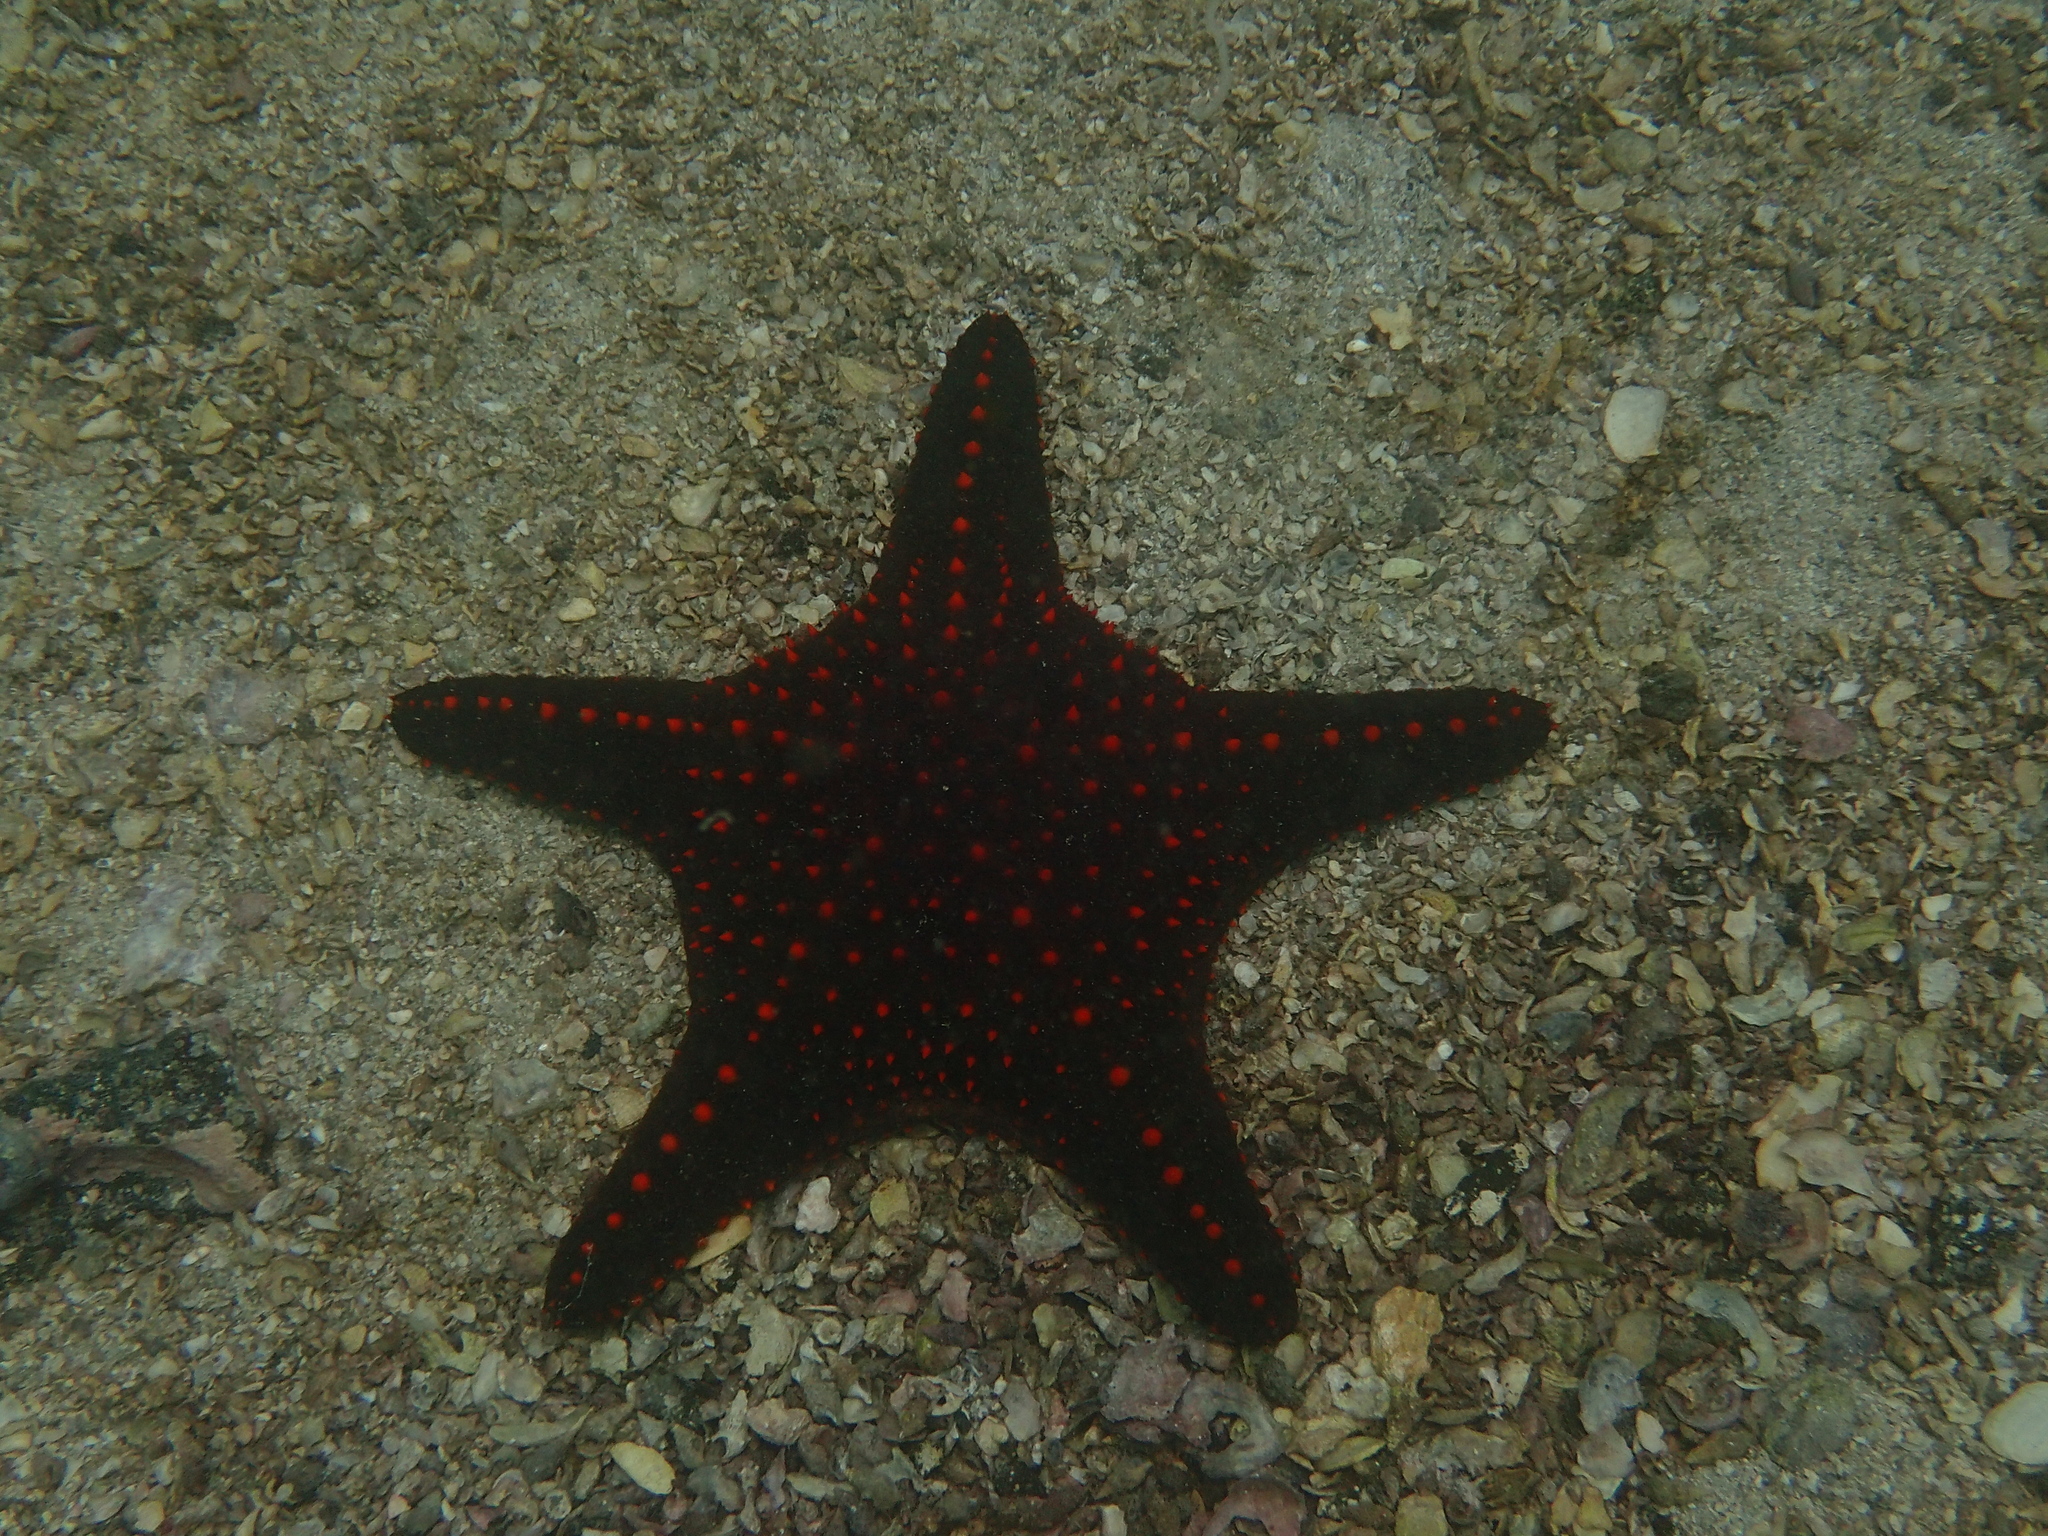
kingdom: Animalia
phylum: Echinodermata
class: Asteroidea
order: Valvatida
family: Oreasteridae
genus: Pentaceraster
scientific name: Pentaceraster cumingi
